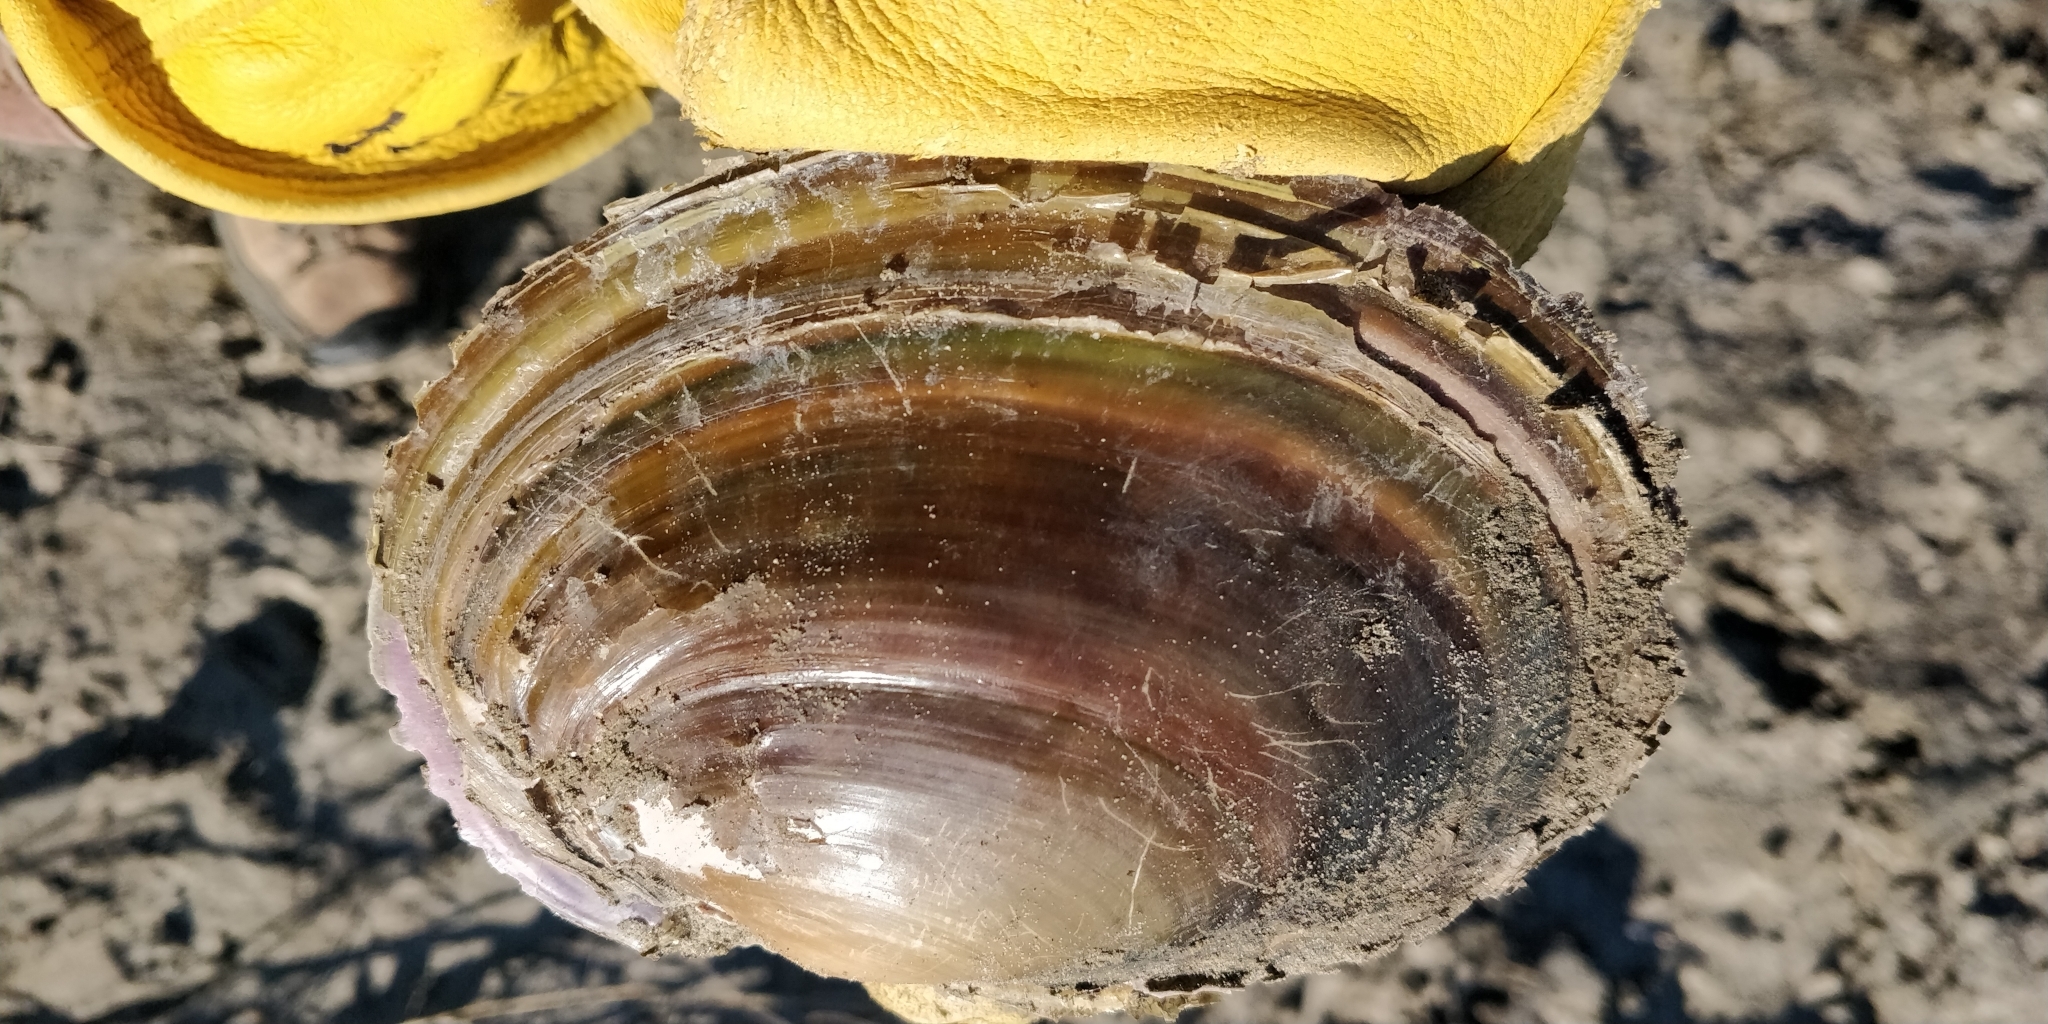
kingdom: Animalia
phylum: Mollusca
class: Bivalvia
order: Unionida
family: Unionidae
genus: Potamilus
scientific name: Potamilus ohiensis
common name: Pink papershell
